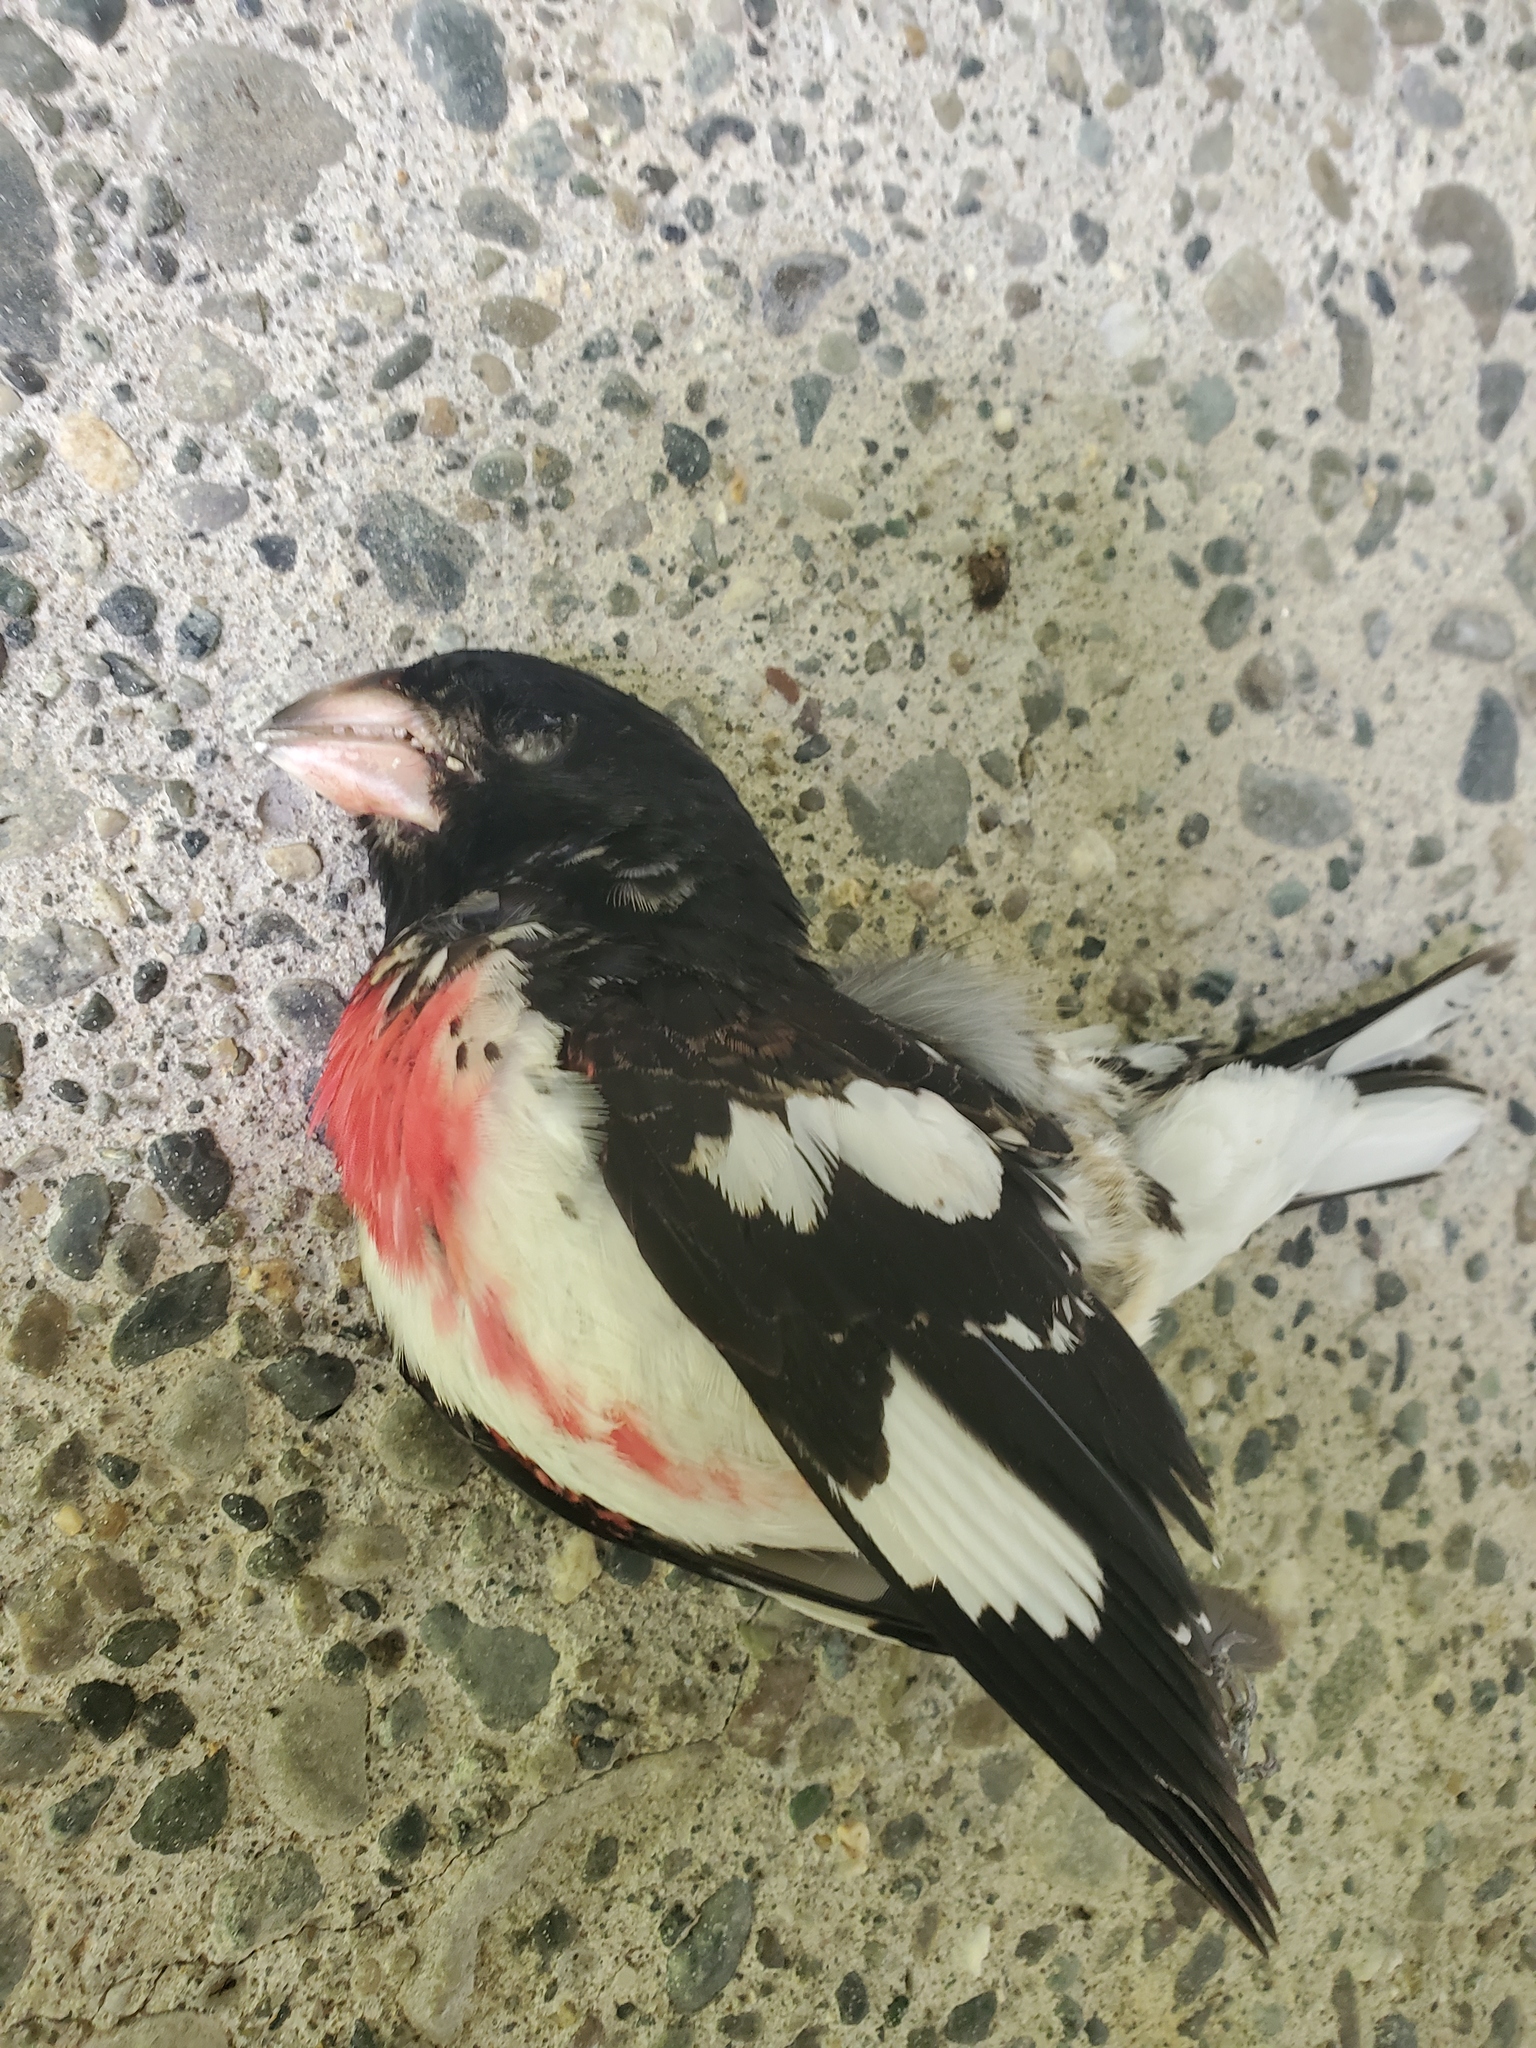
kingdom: Animalia
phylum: Chordata
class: Aves
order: Passeriformes
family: Cardinalidae
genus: Pheucticus
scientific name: Pheucticus ludovicianus
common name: Rose-breasted grosbeak
